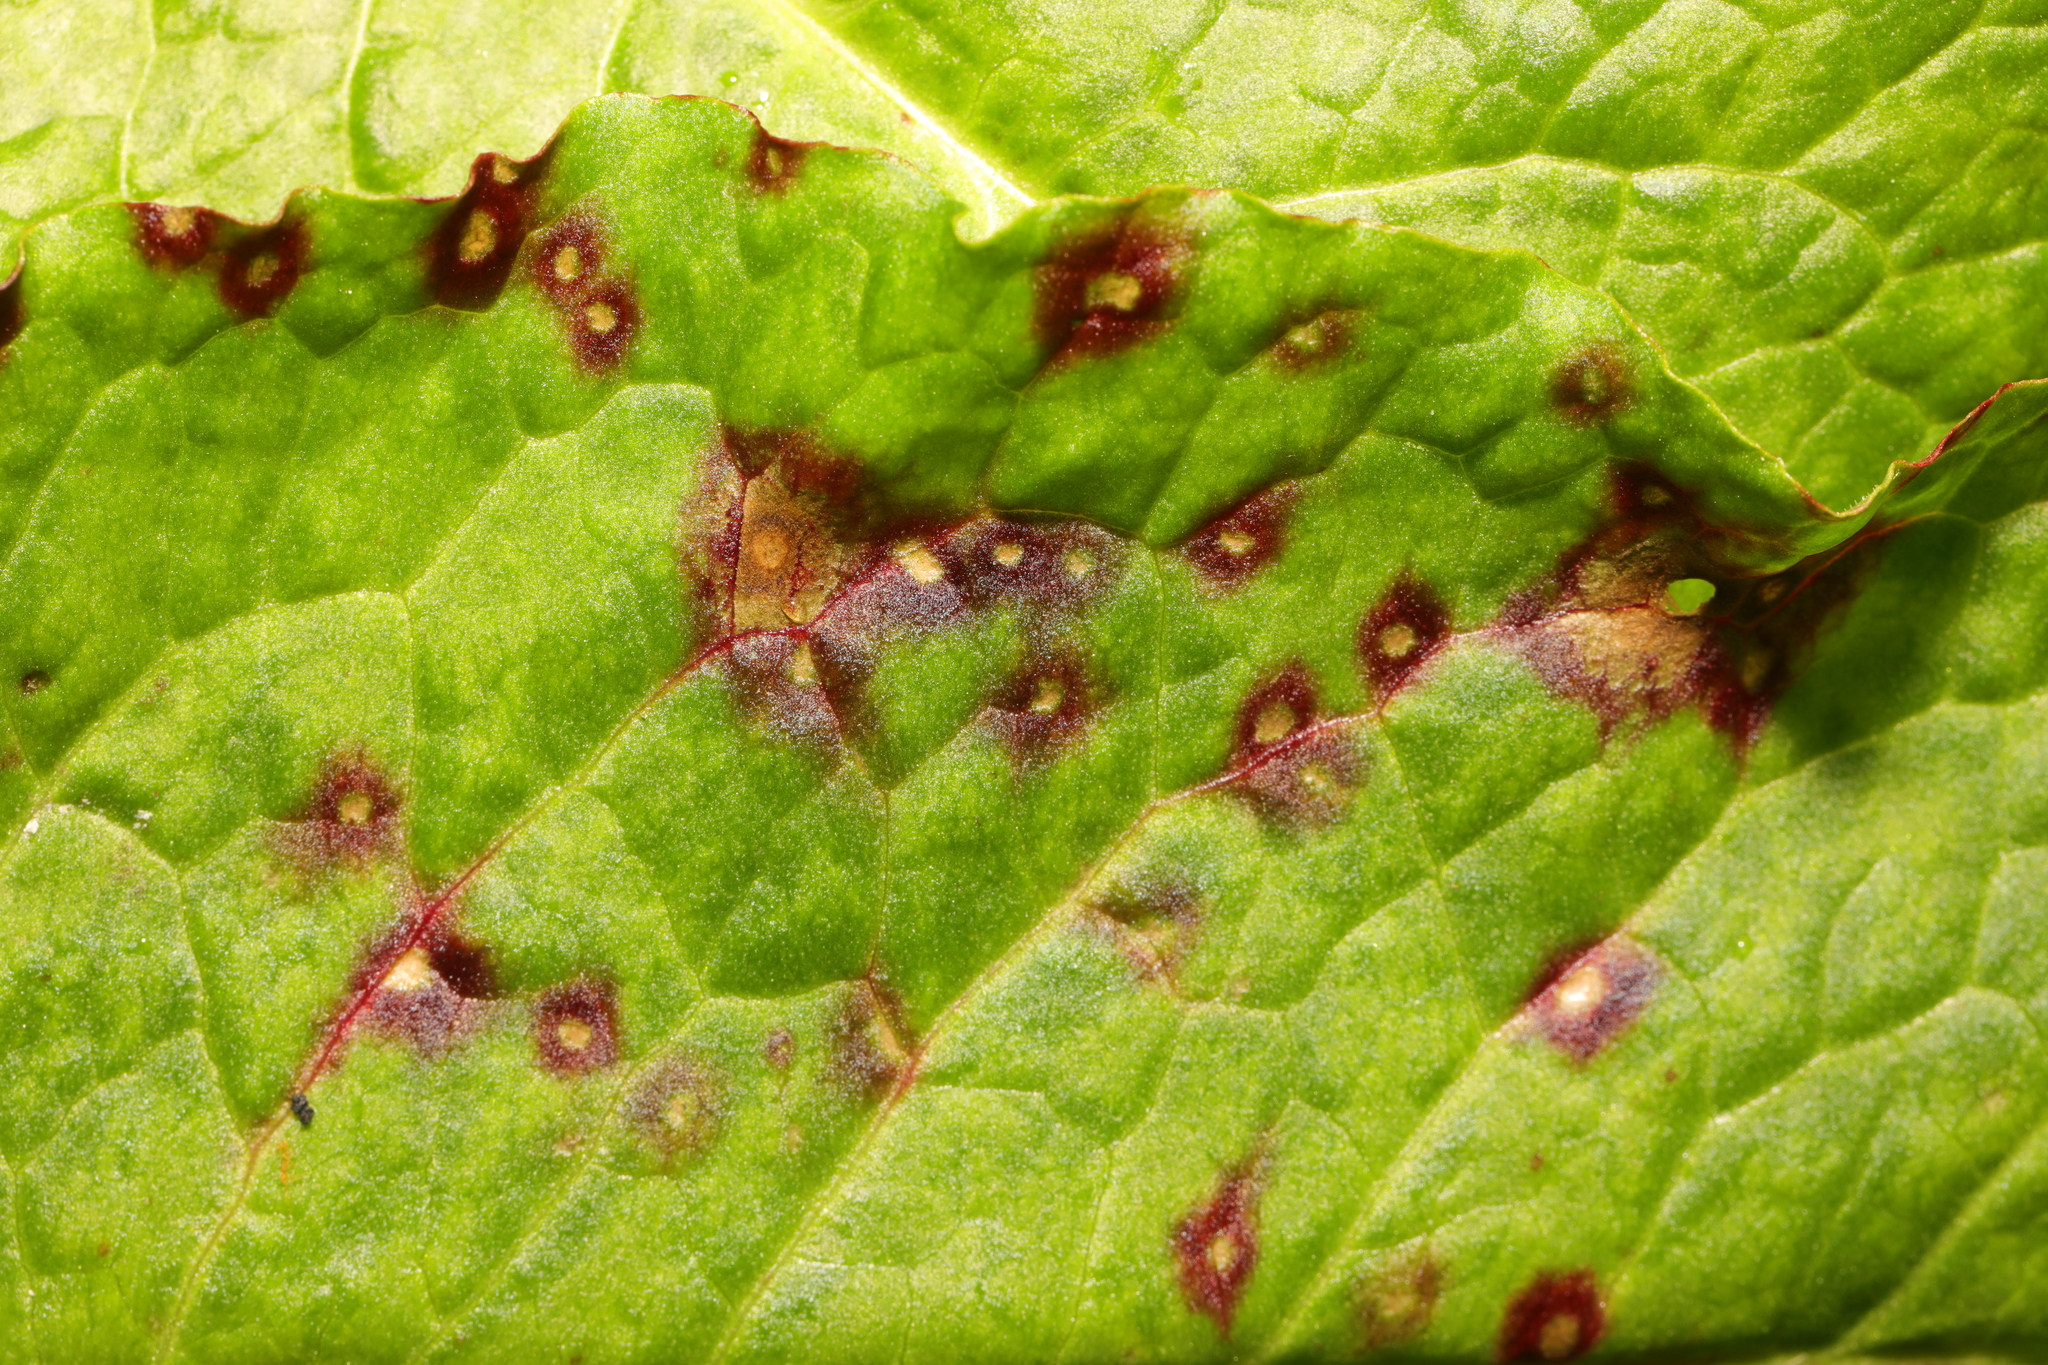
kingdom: Fungi
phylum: Ascomycota
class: Dothideomycetes
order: Mycosphaerellales
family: Mycosphaerellaceae
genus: Ramularia
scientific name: Ramularia rubella
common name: Red dock spot
